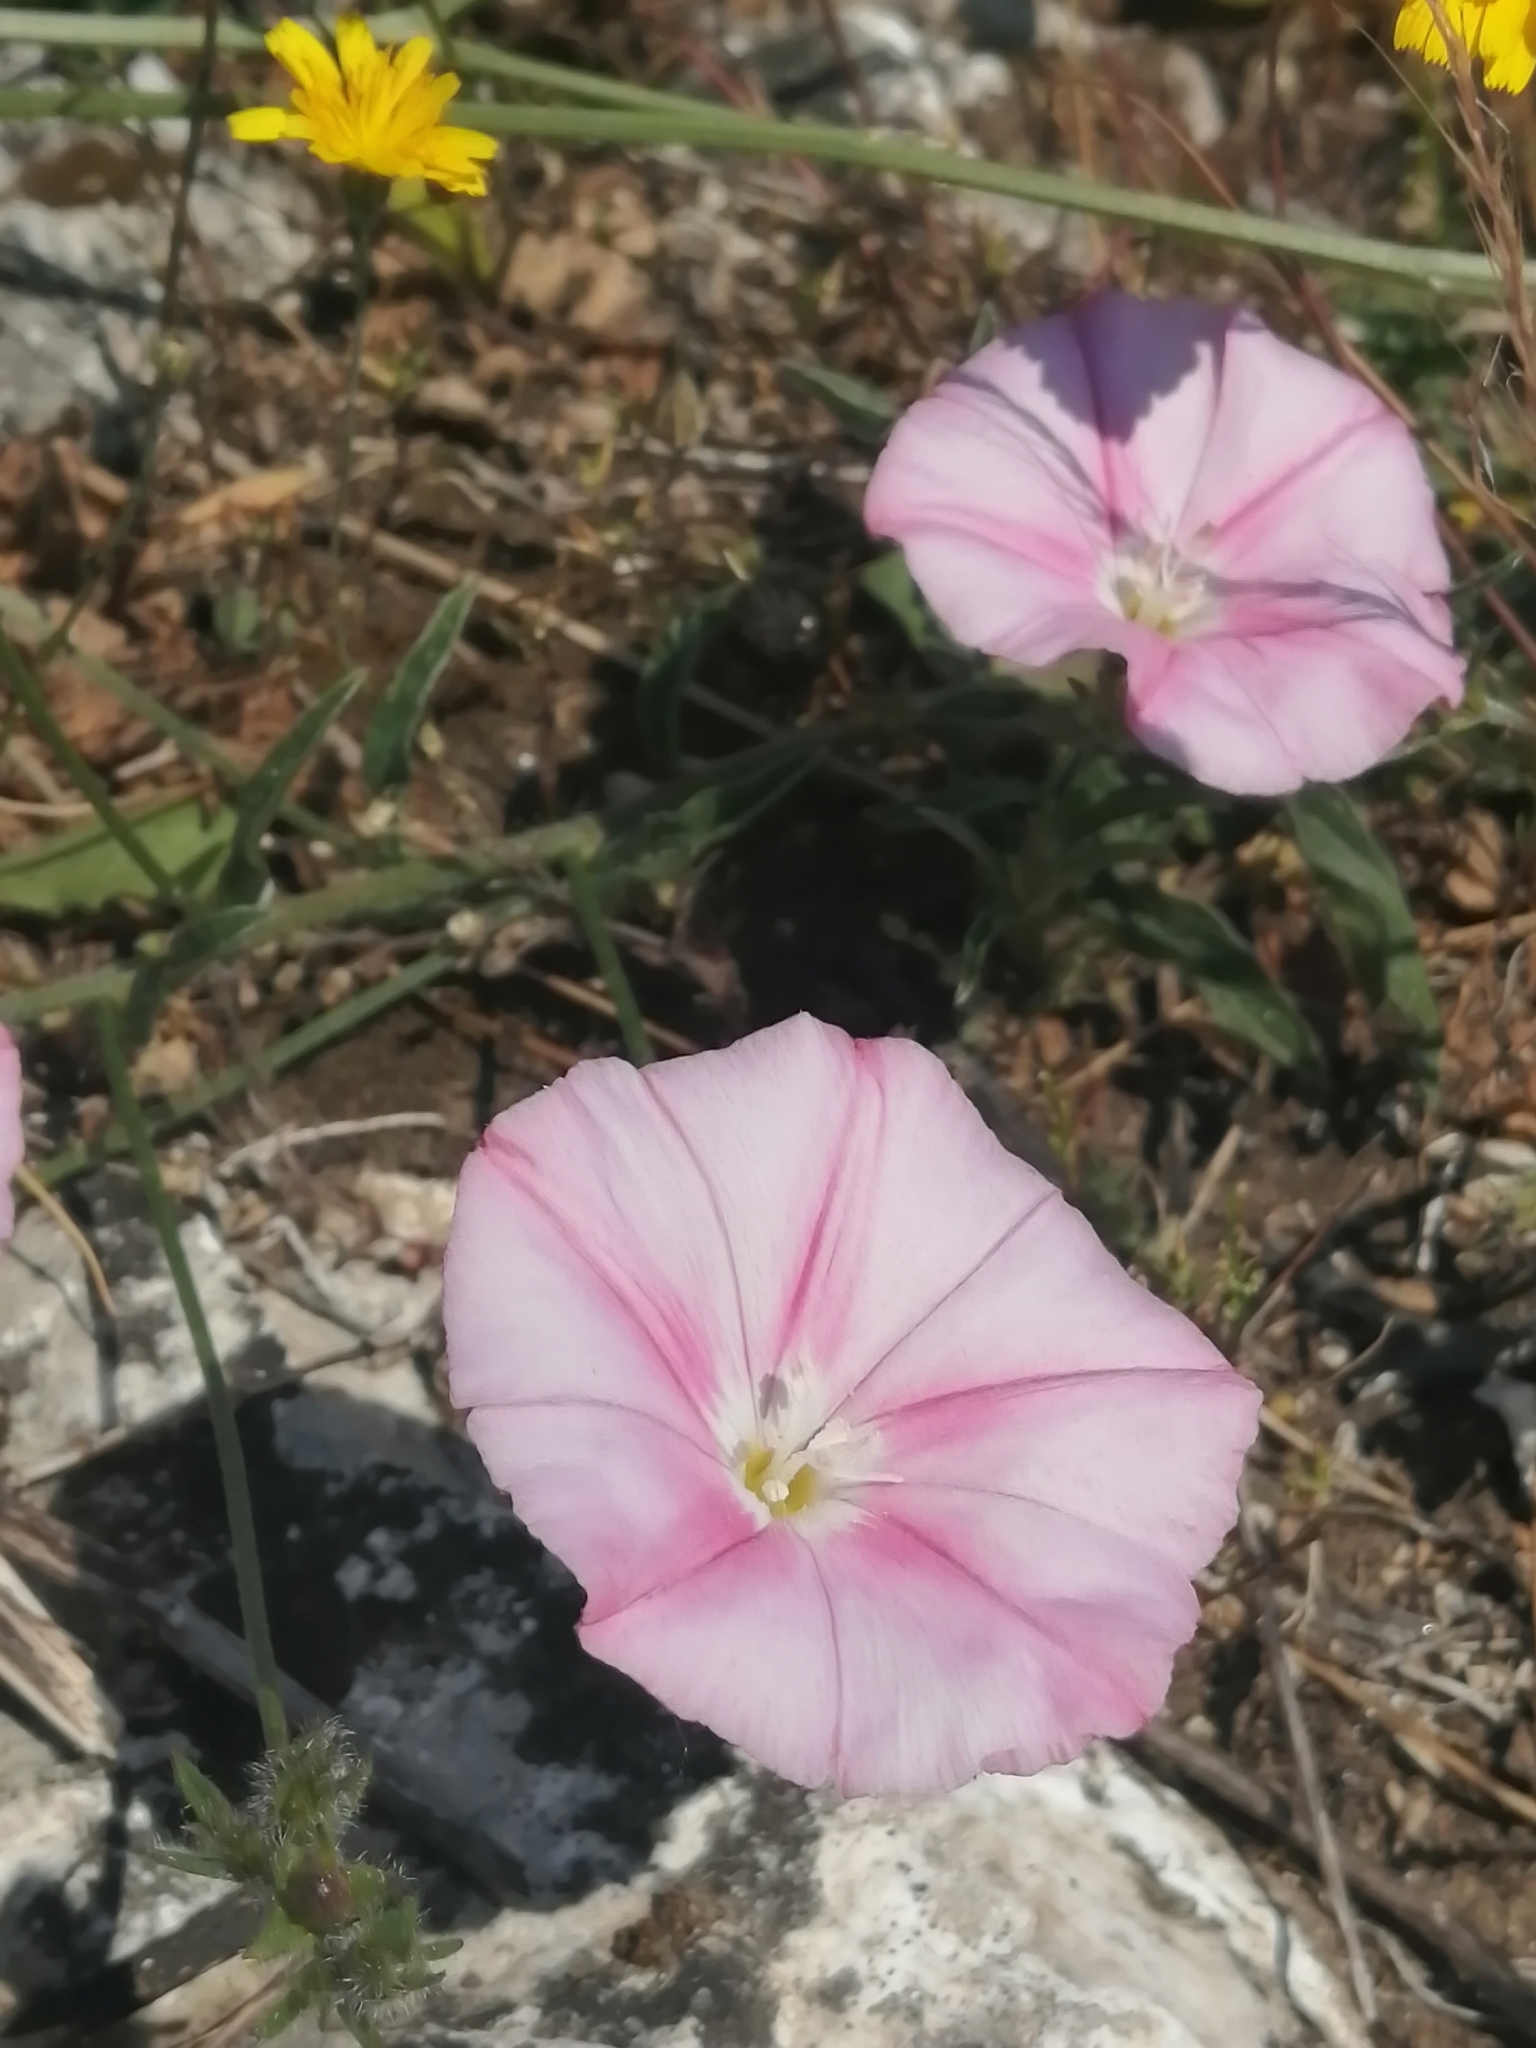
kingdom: Plantae
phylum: Tracheophyta
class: Magnoliopsida
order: Solanales
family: Convolvulaceae
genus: Convolvulus
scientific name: Convolvulus cantabrica
